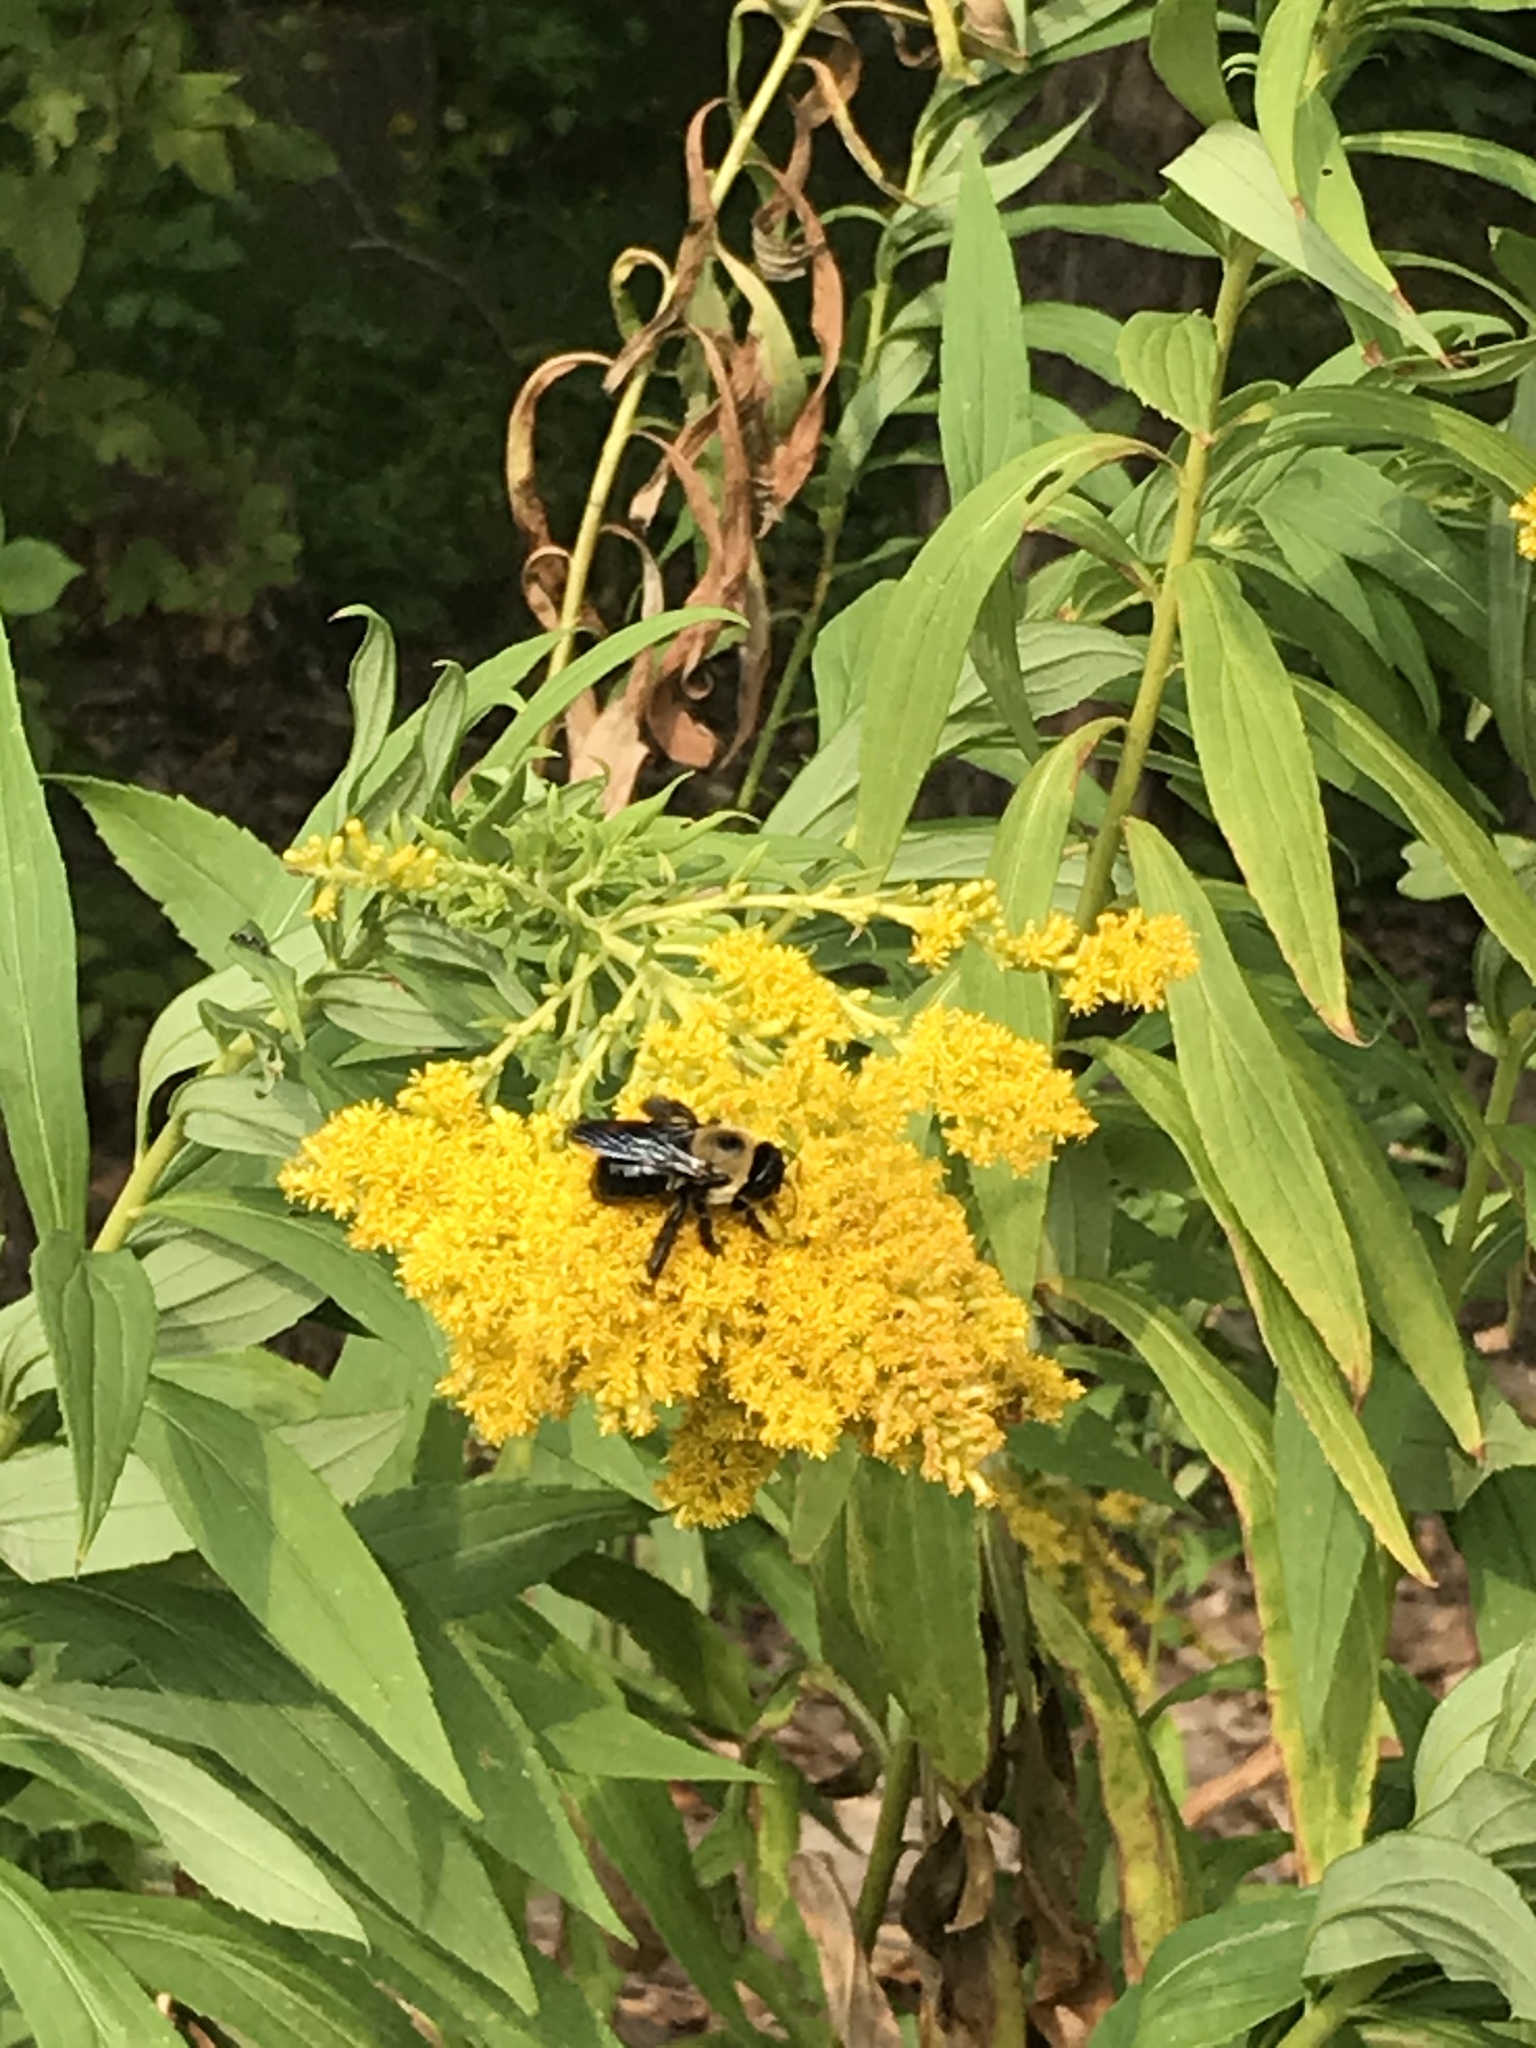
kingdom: Animalia
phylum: Arthropoda
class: Insecta
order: Hymenoptera
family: Apidae
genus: Xylocopa
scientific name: Xylocopa virginica
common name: Carpenter bee
